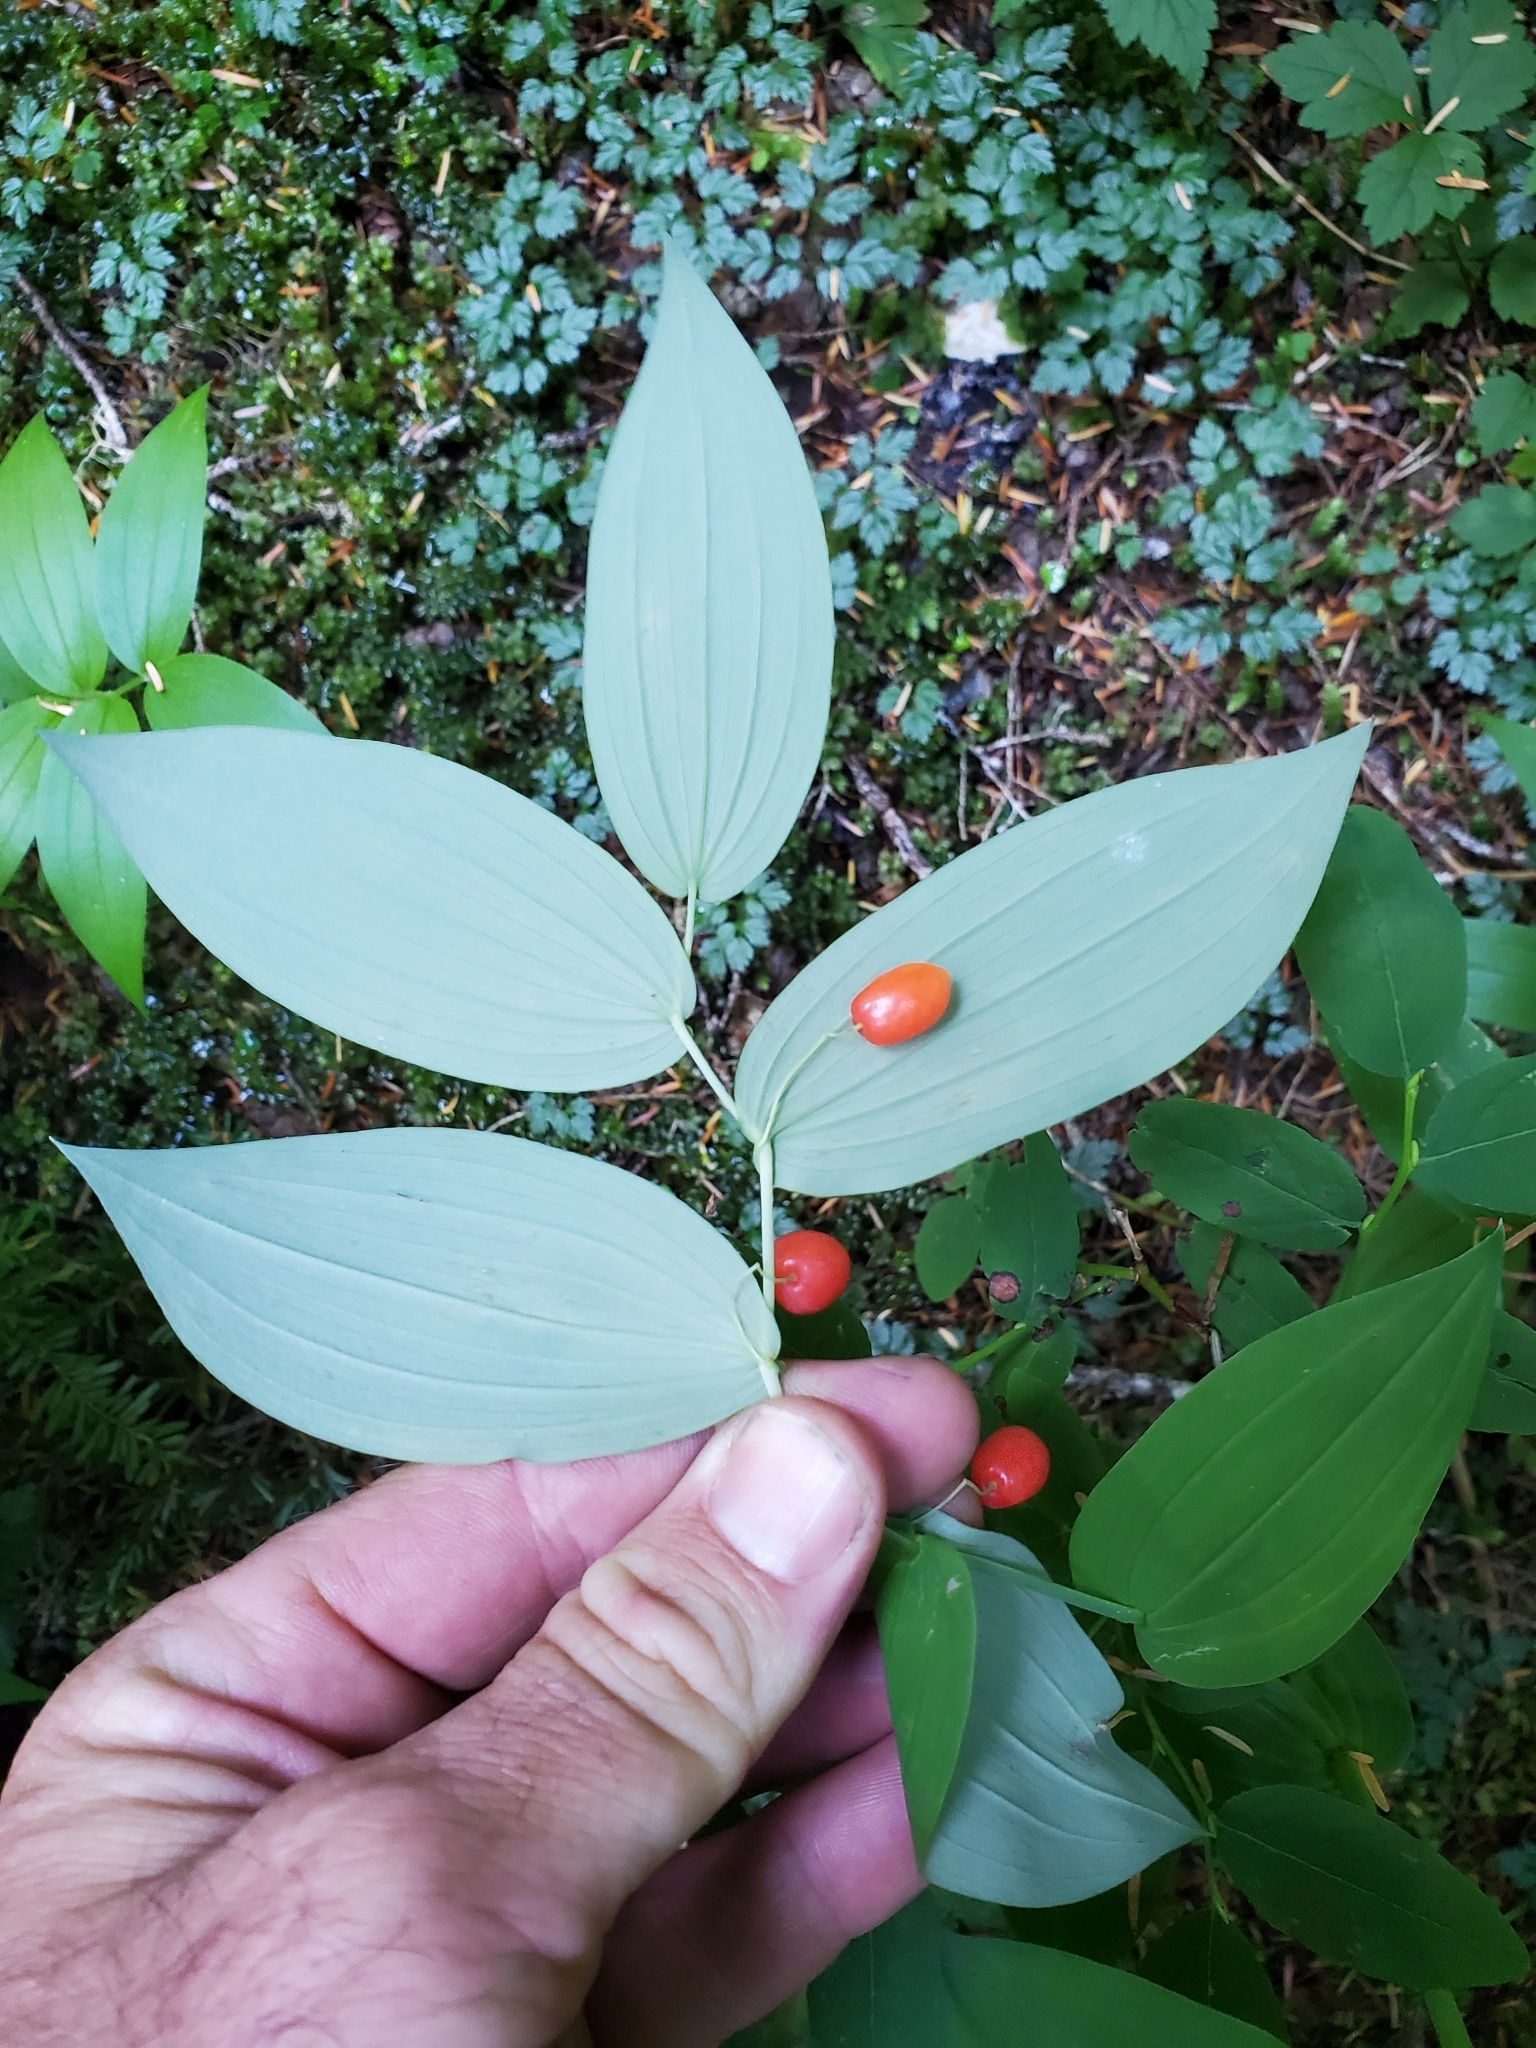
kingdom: Plantae
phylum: Tracheophyta
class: Liliopsida
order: Liliales
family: Liliaceae
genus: Streptopus
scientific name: Streptopus amplexifolius
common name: Clasp twisted stalk
